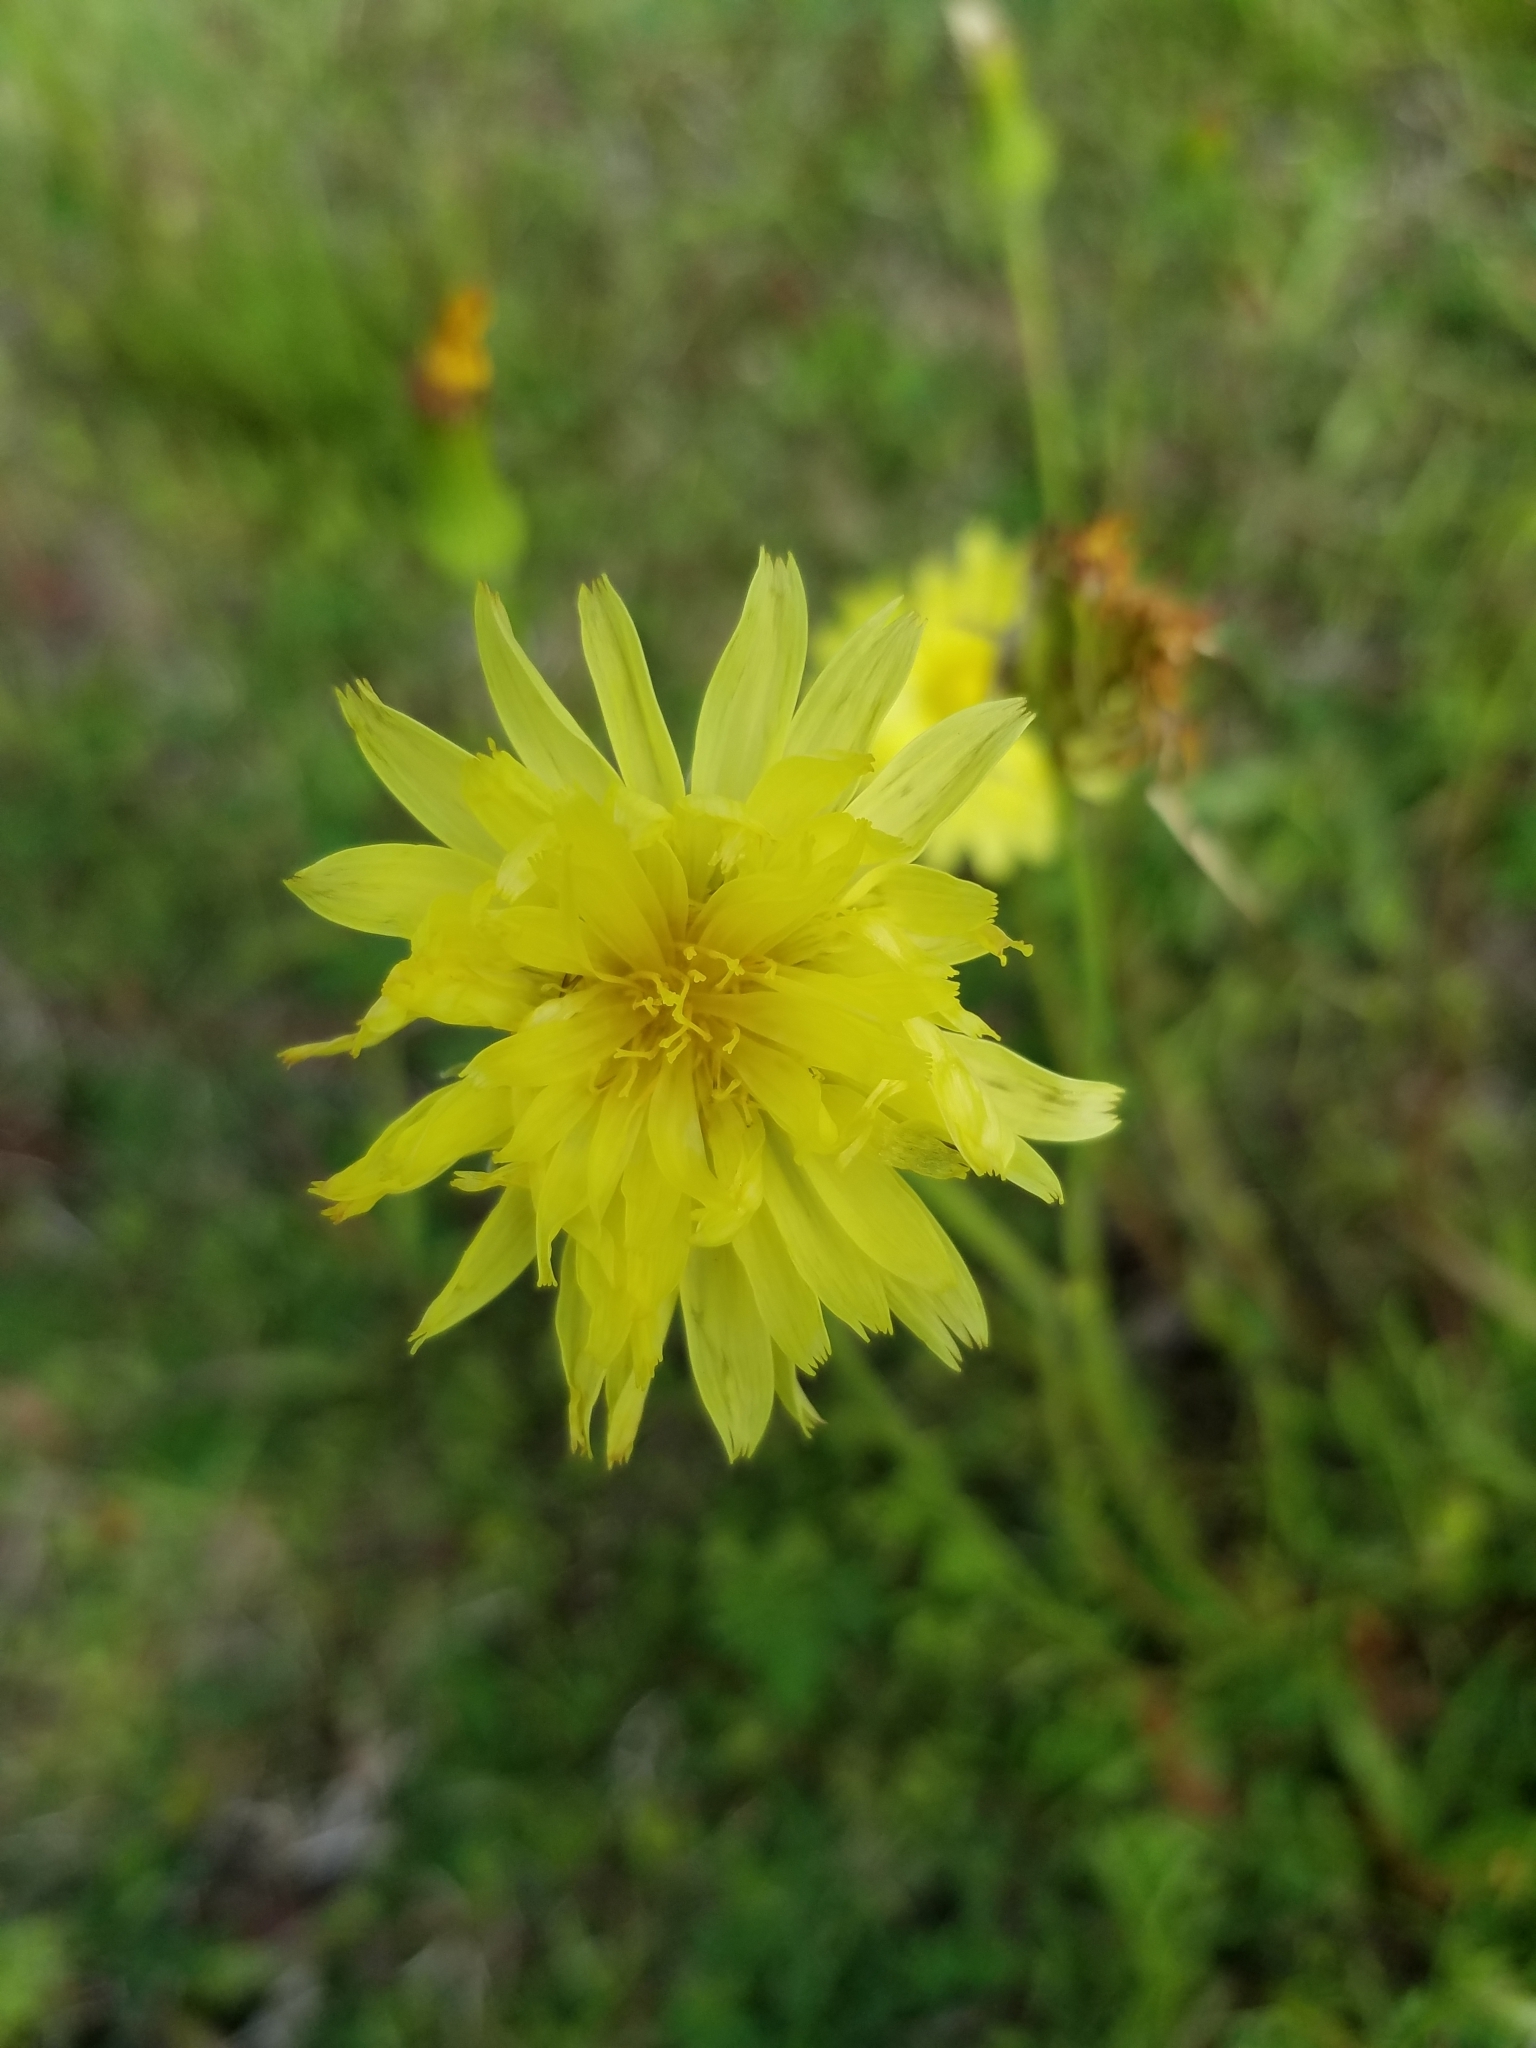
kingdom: Plantae
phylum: Tracheophyta
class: Magnoliopsida
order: Asterales
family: Asteraceae
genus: Pyrrhopappus
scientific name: Pyrrhopappus carolinianus
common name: Carolina desert-chicory
